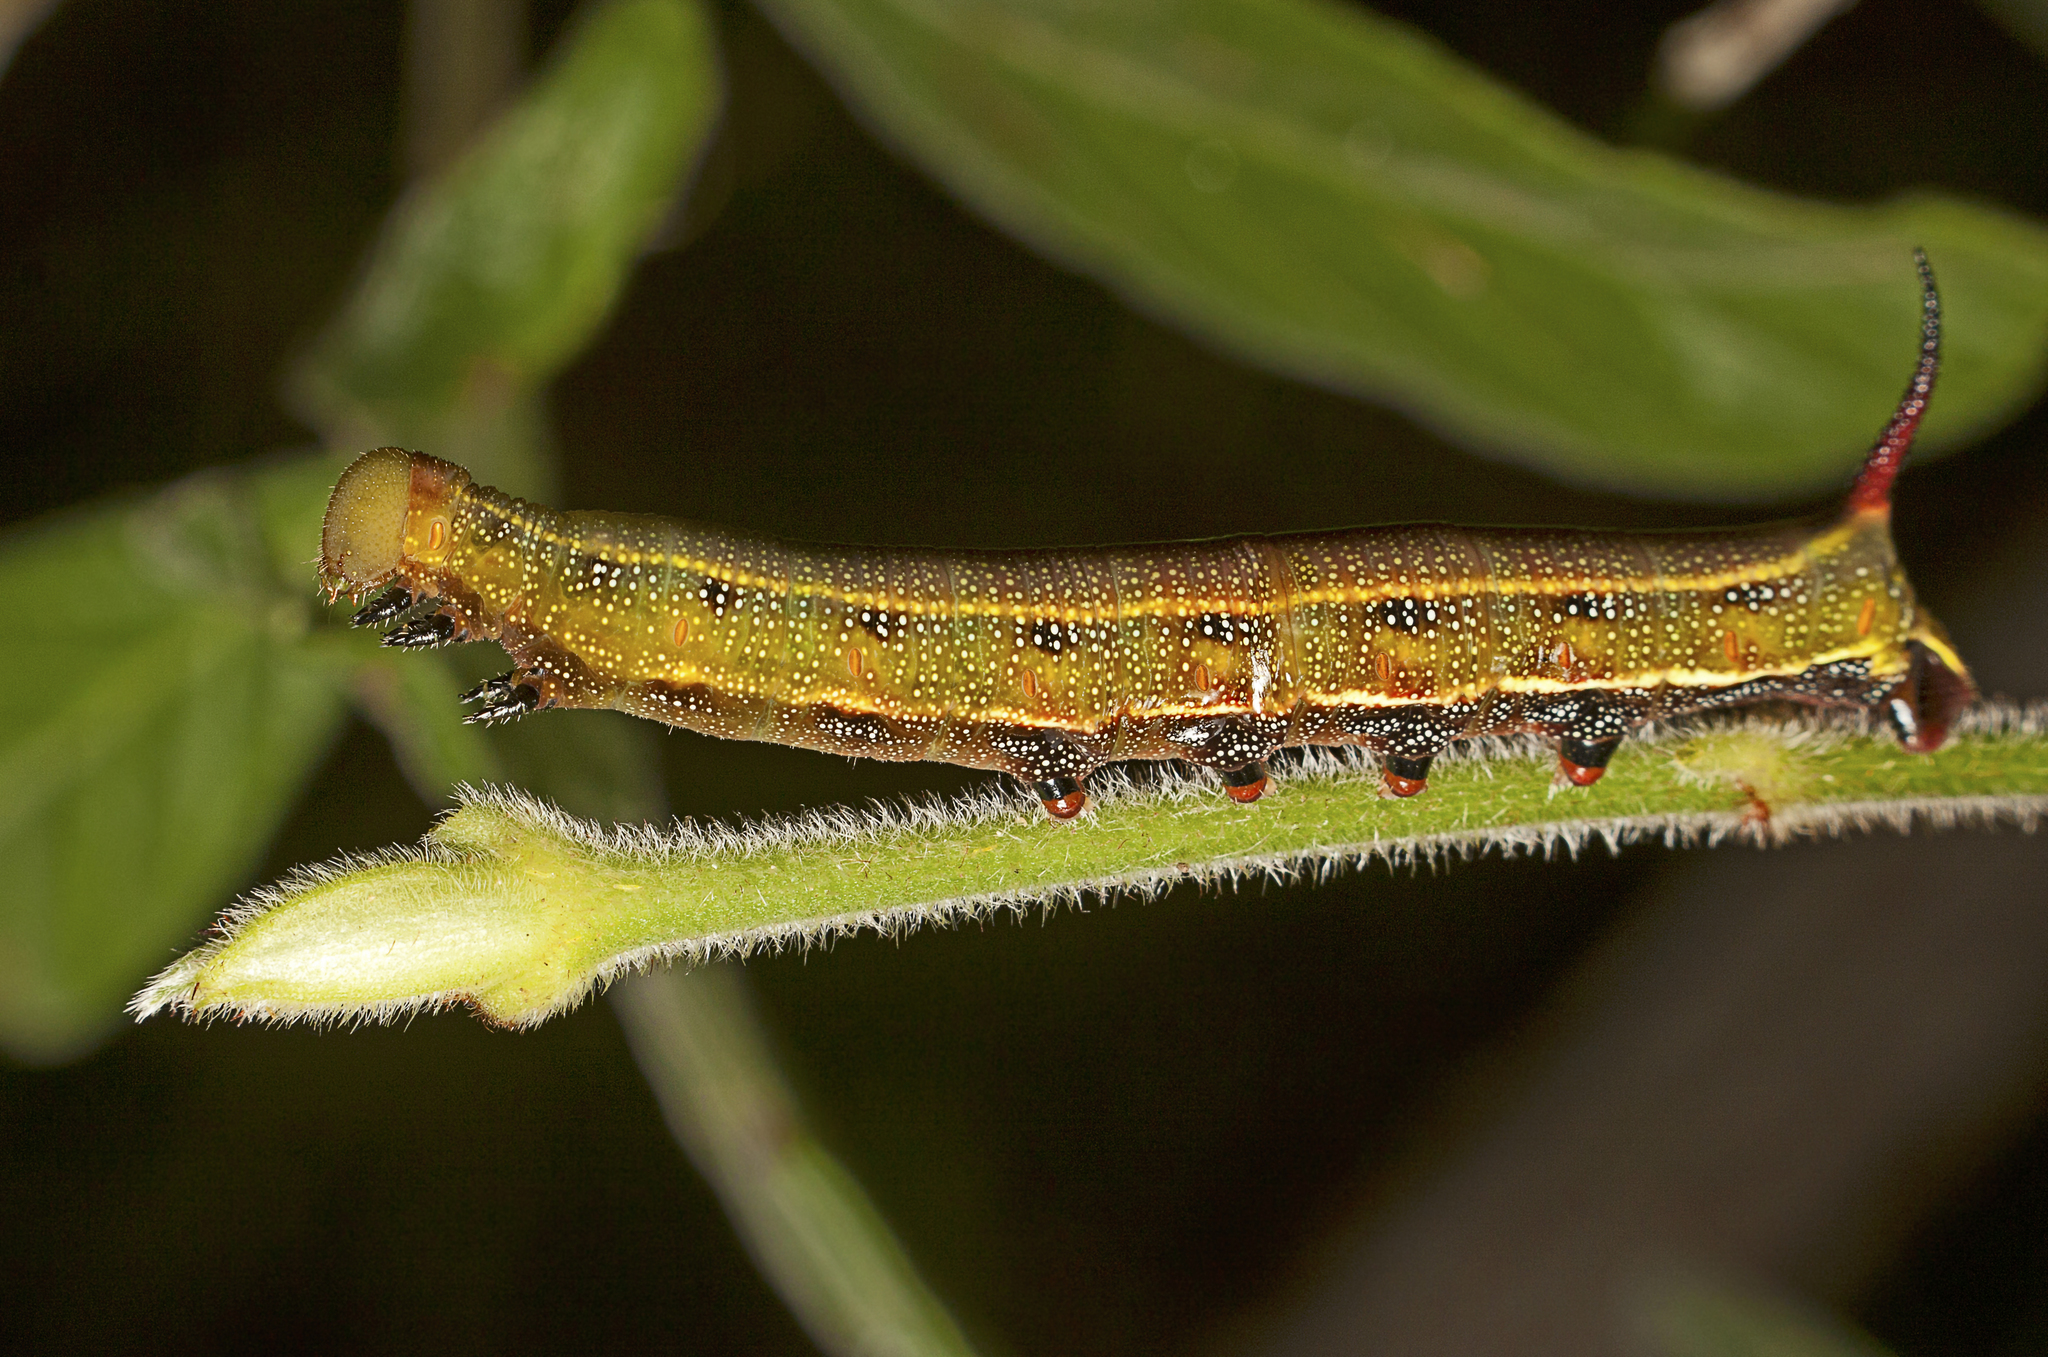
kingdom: Animalia
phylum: Arthropoda
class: Insecta
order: Lepidoptera
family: Sphingidae
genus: Macroglossum
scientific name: Macroglossum errans
